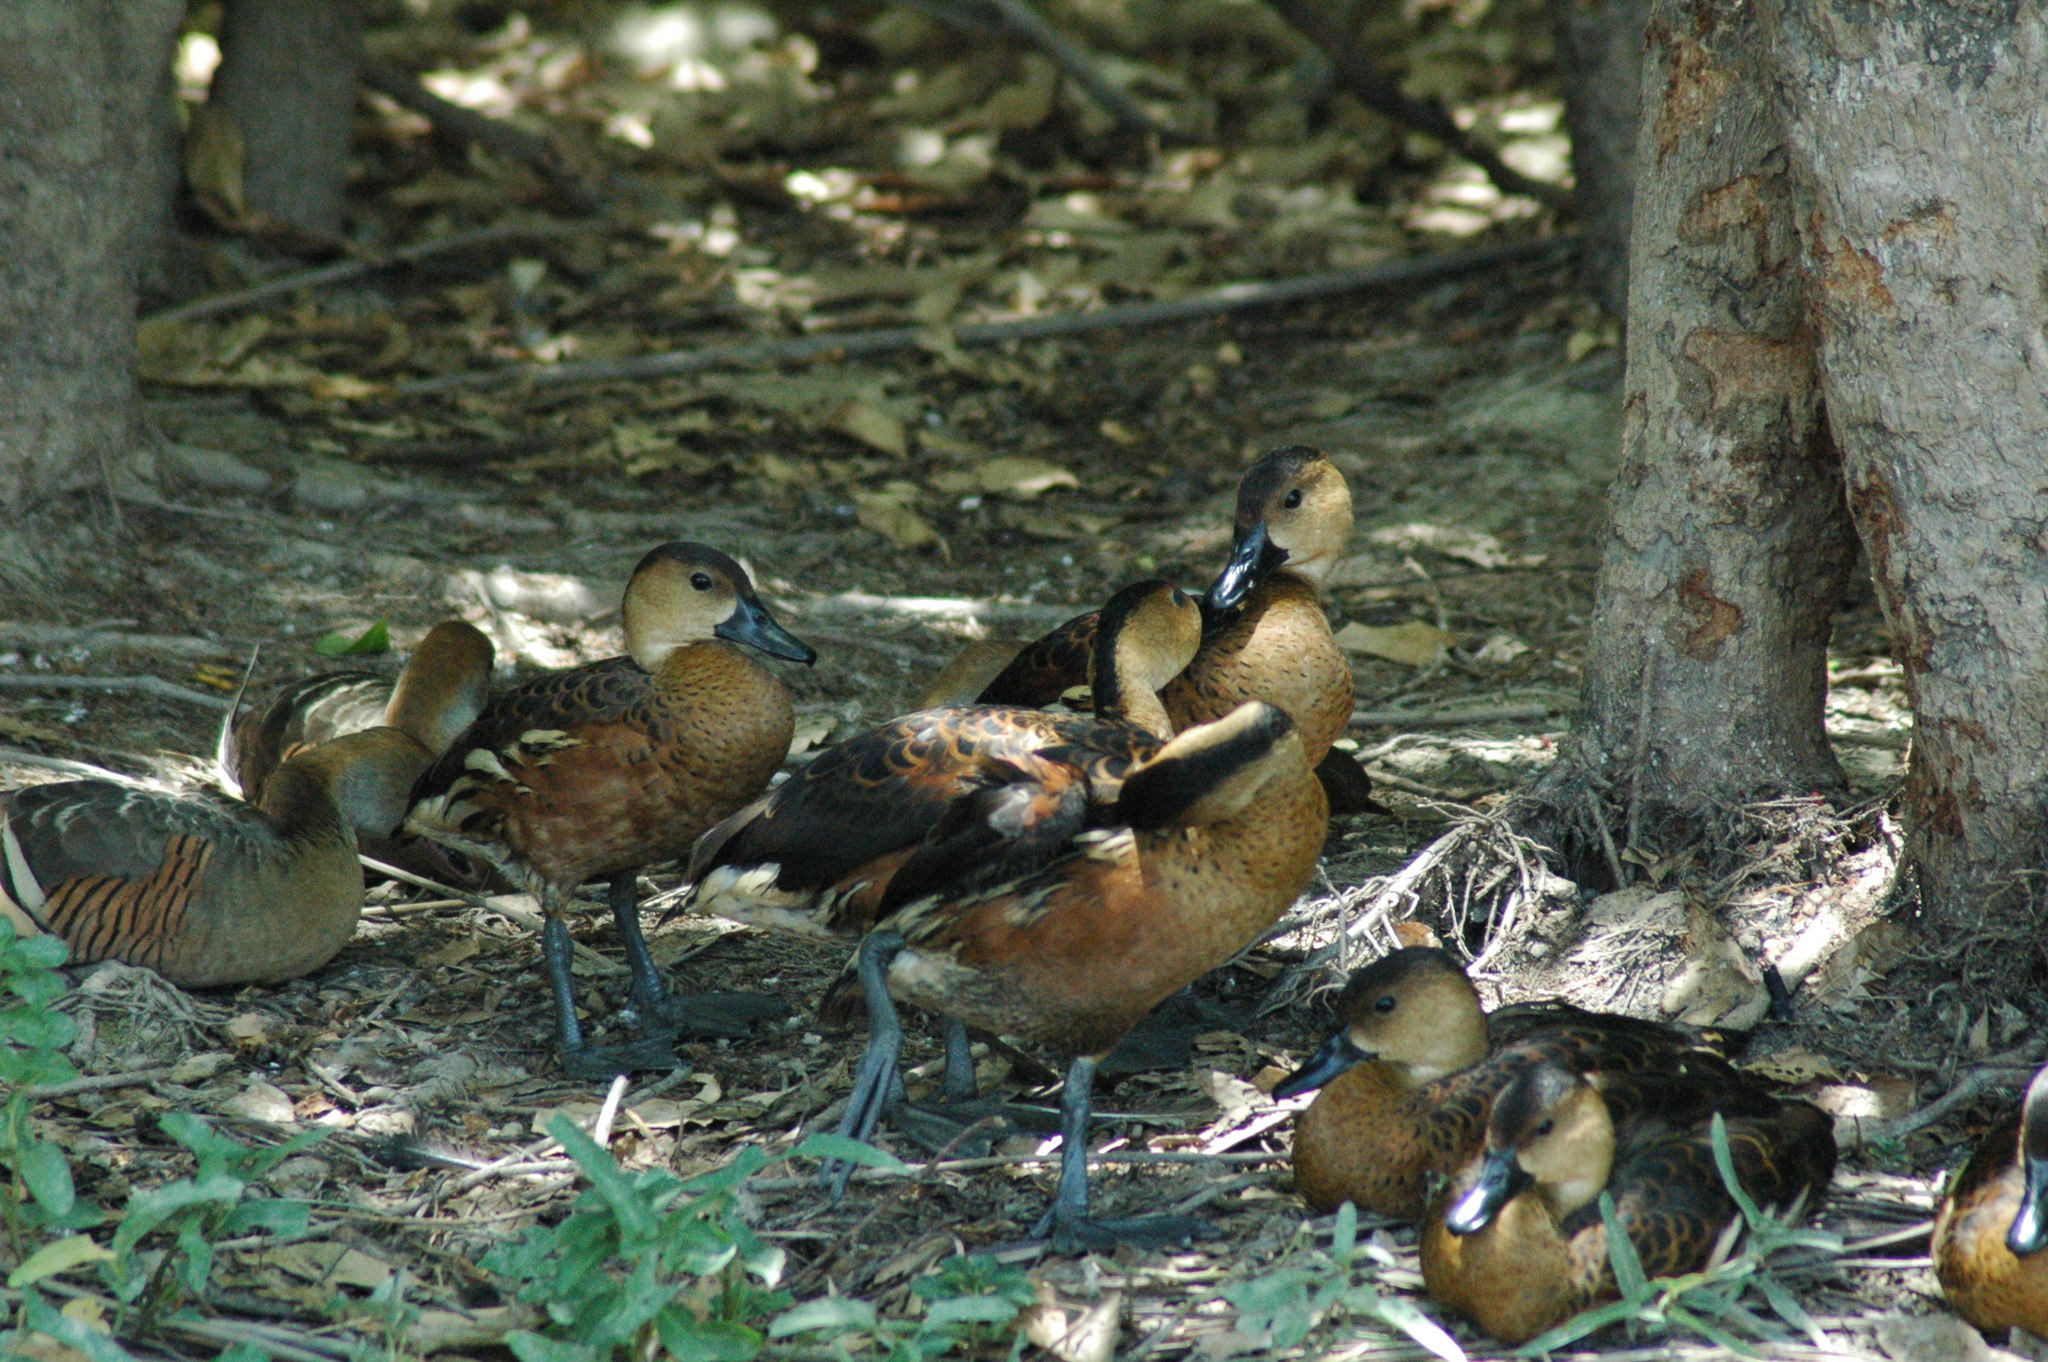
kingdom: Animalia
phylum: Chordata
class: Aves
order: Anseriformes
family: Anatidae
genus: Dendrocygna
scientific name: Dendrocygna arcuata
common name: Wandering whistling-duck
